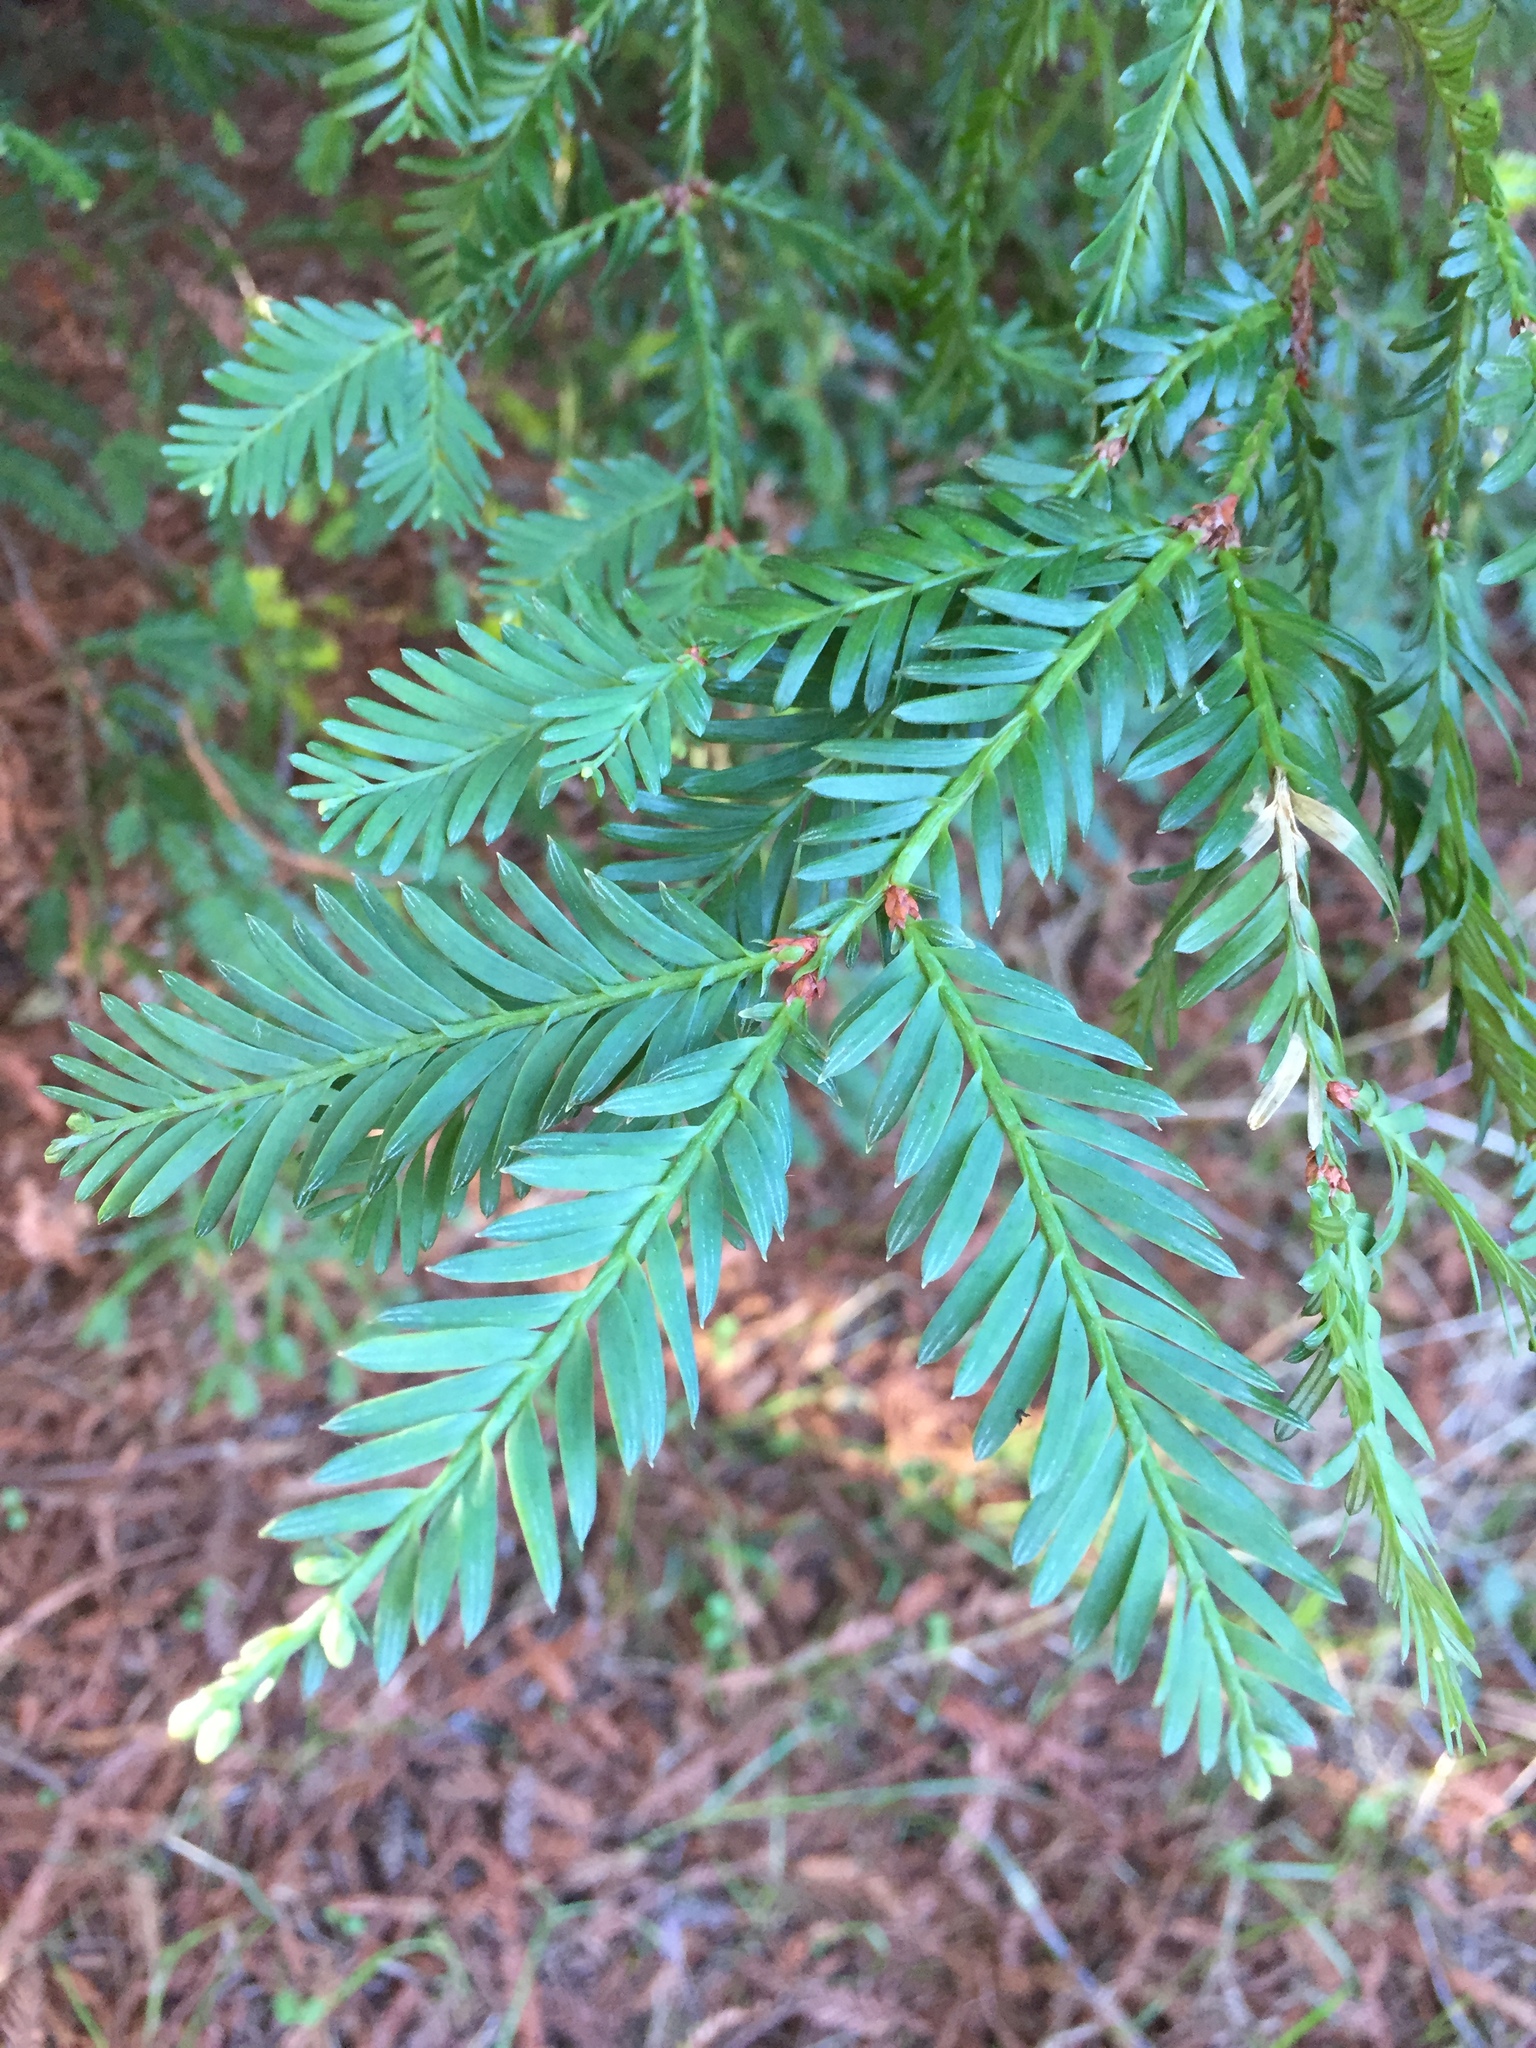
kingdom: Plantae
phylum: Tracheophyta
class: Pinopsida
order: Pinales
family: Cupressaceae
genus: Sequoia
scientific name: Sequoia sempervirens
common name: Coast redwood
